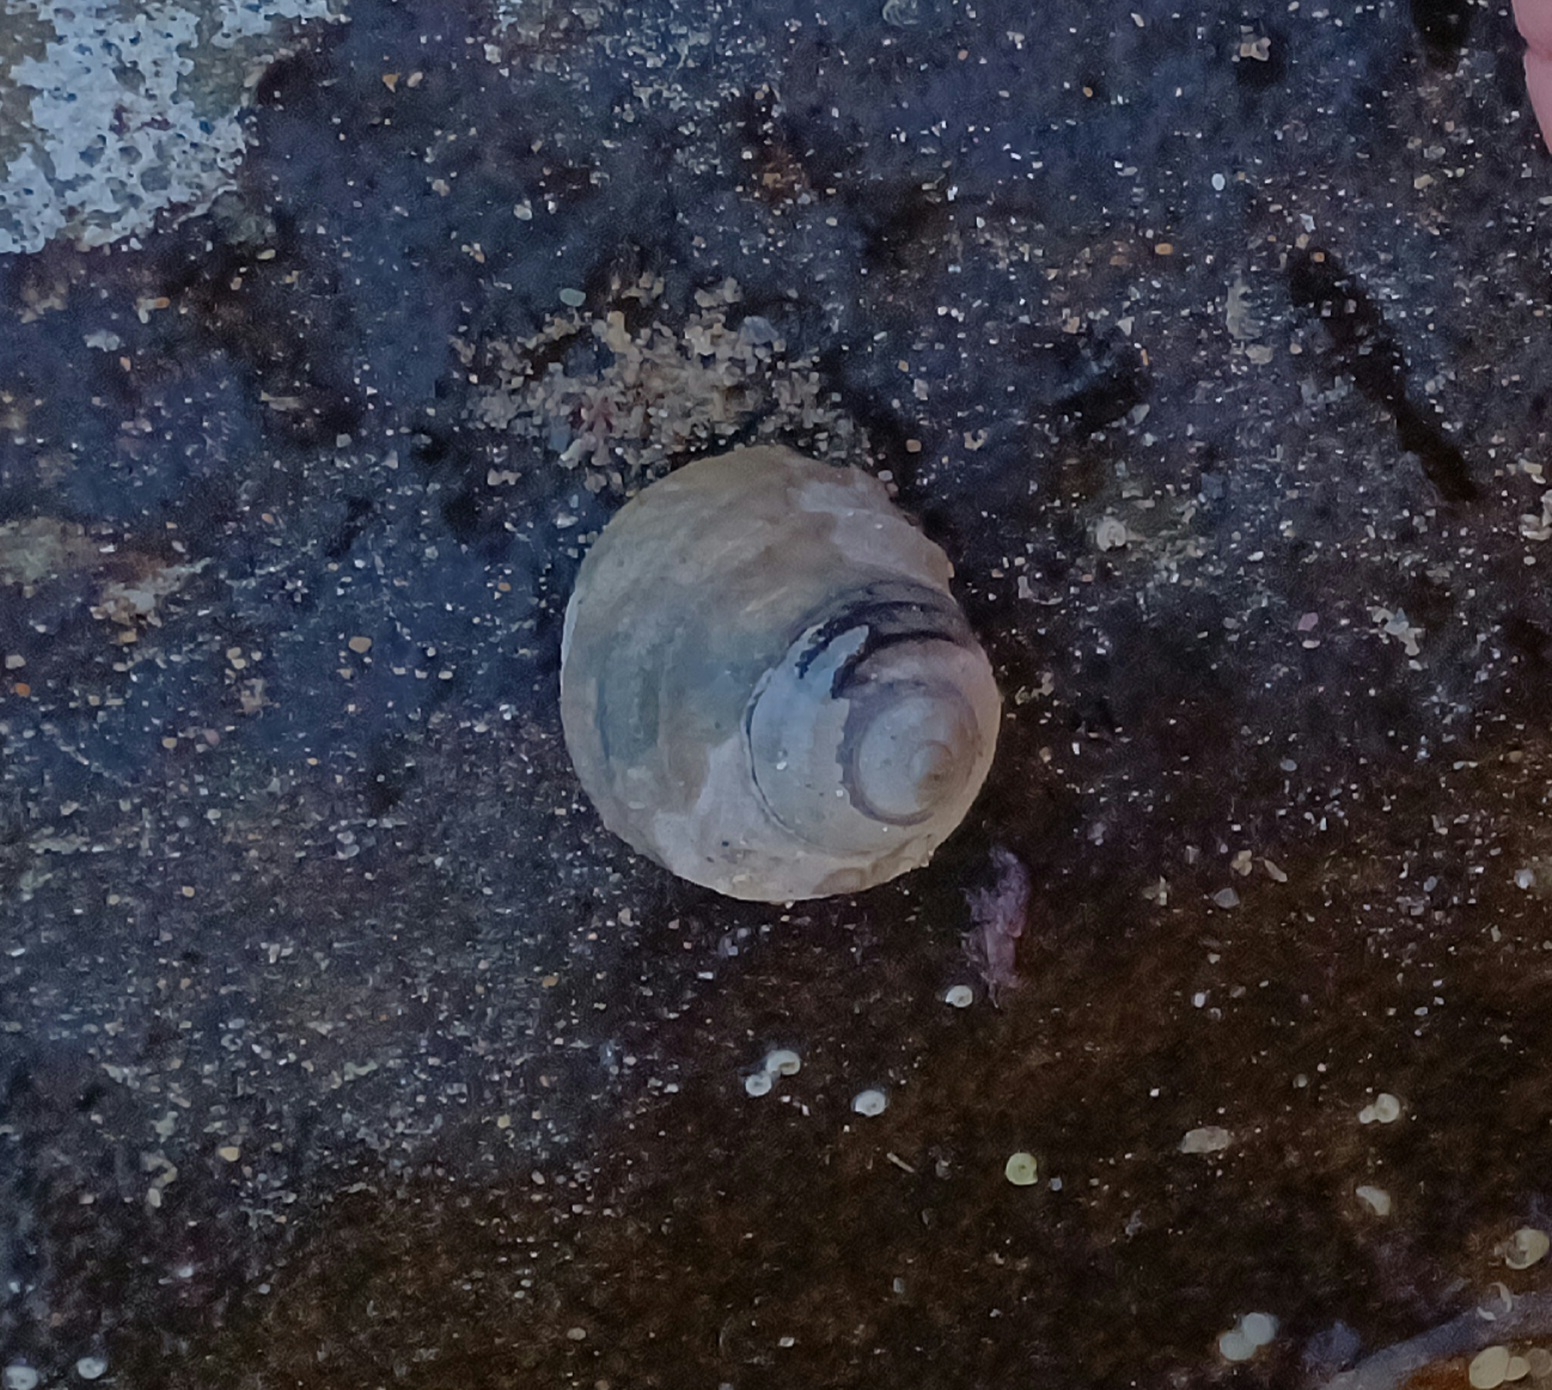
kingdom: Animalia
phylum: Mollusca
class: Gastropoda
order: Trochida
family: Trochidae
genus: Austrocochlea
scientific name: Austrocochlea constricta
